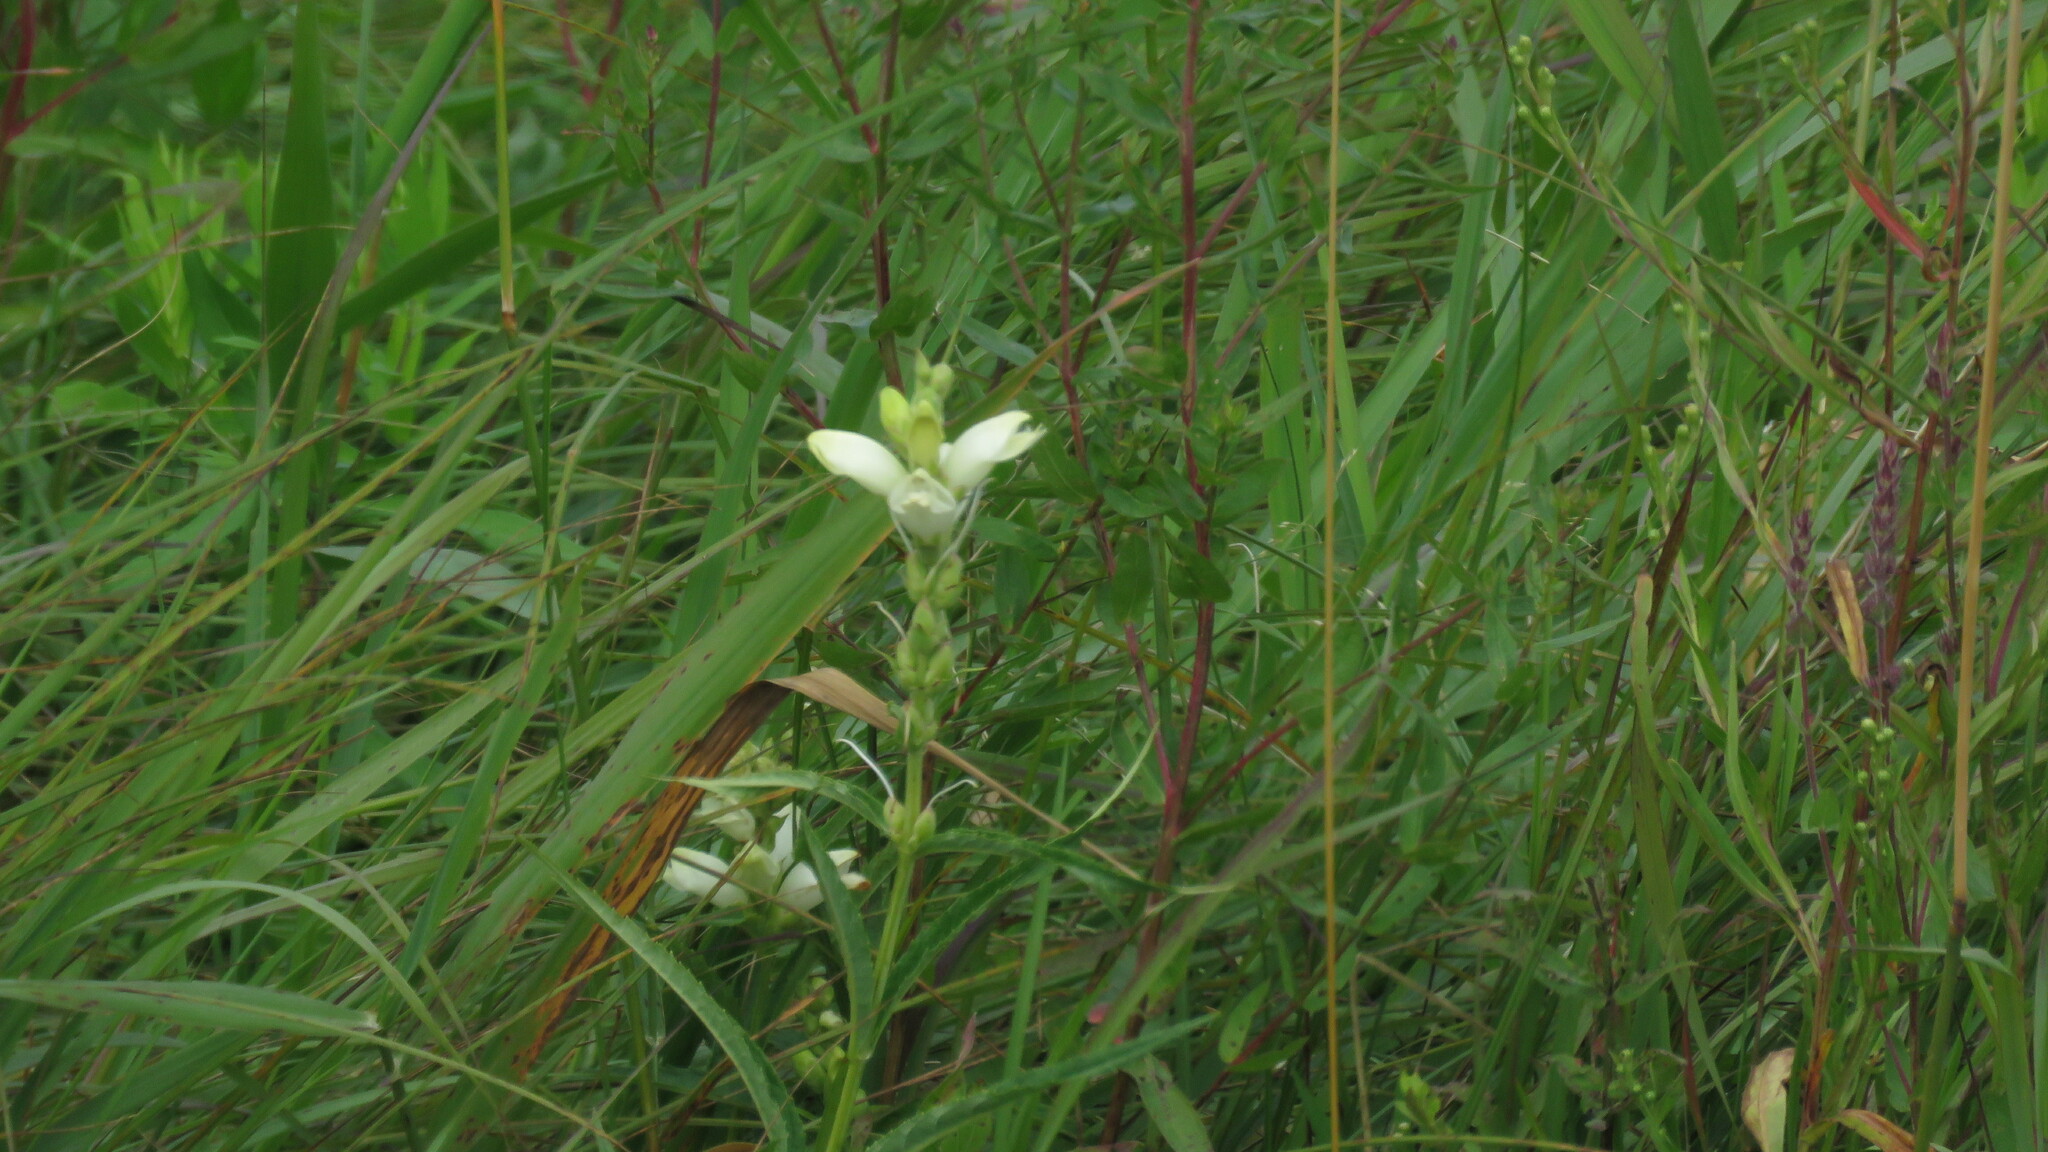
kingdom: Plantae
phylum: Tracheophyta
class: Magnoliopsida
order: Lamiales
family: Plantaginaceae
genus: Chelone
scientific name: Chelone glabra
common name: Snakehead
